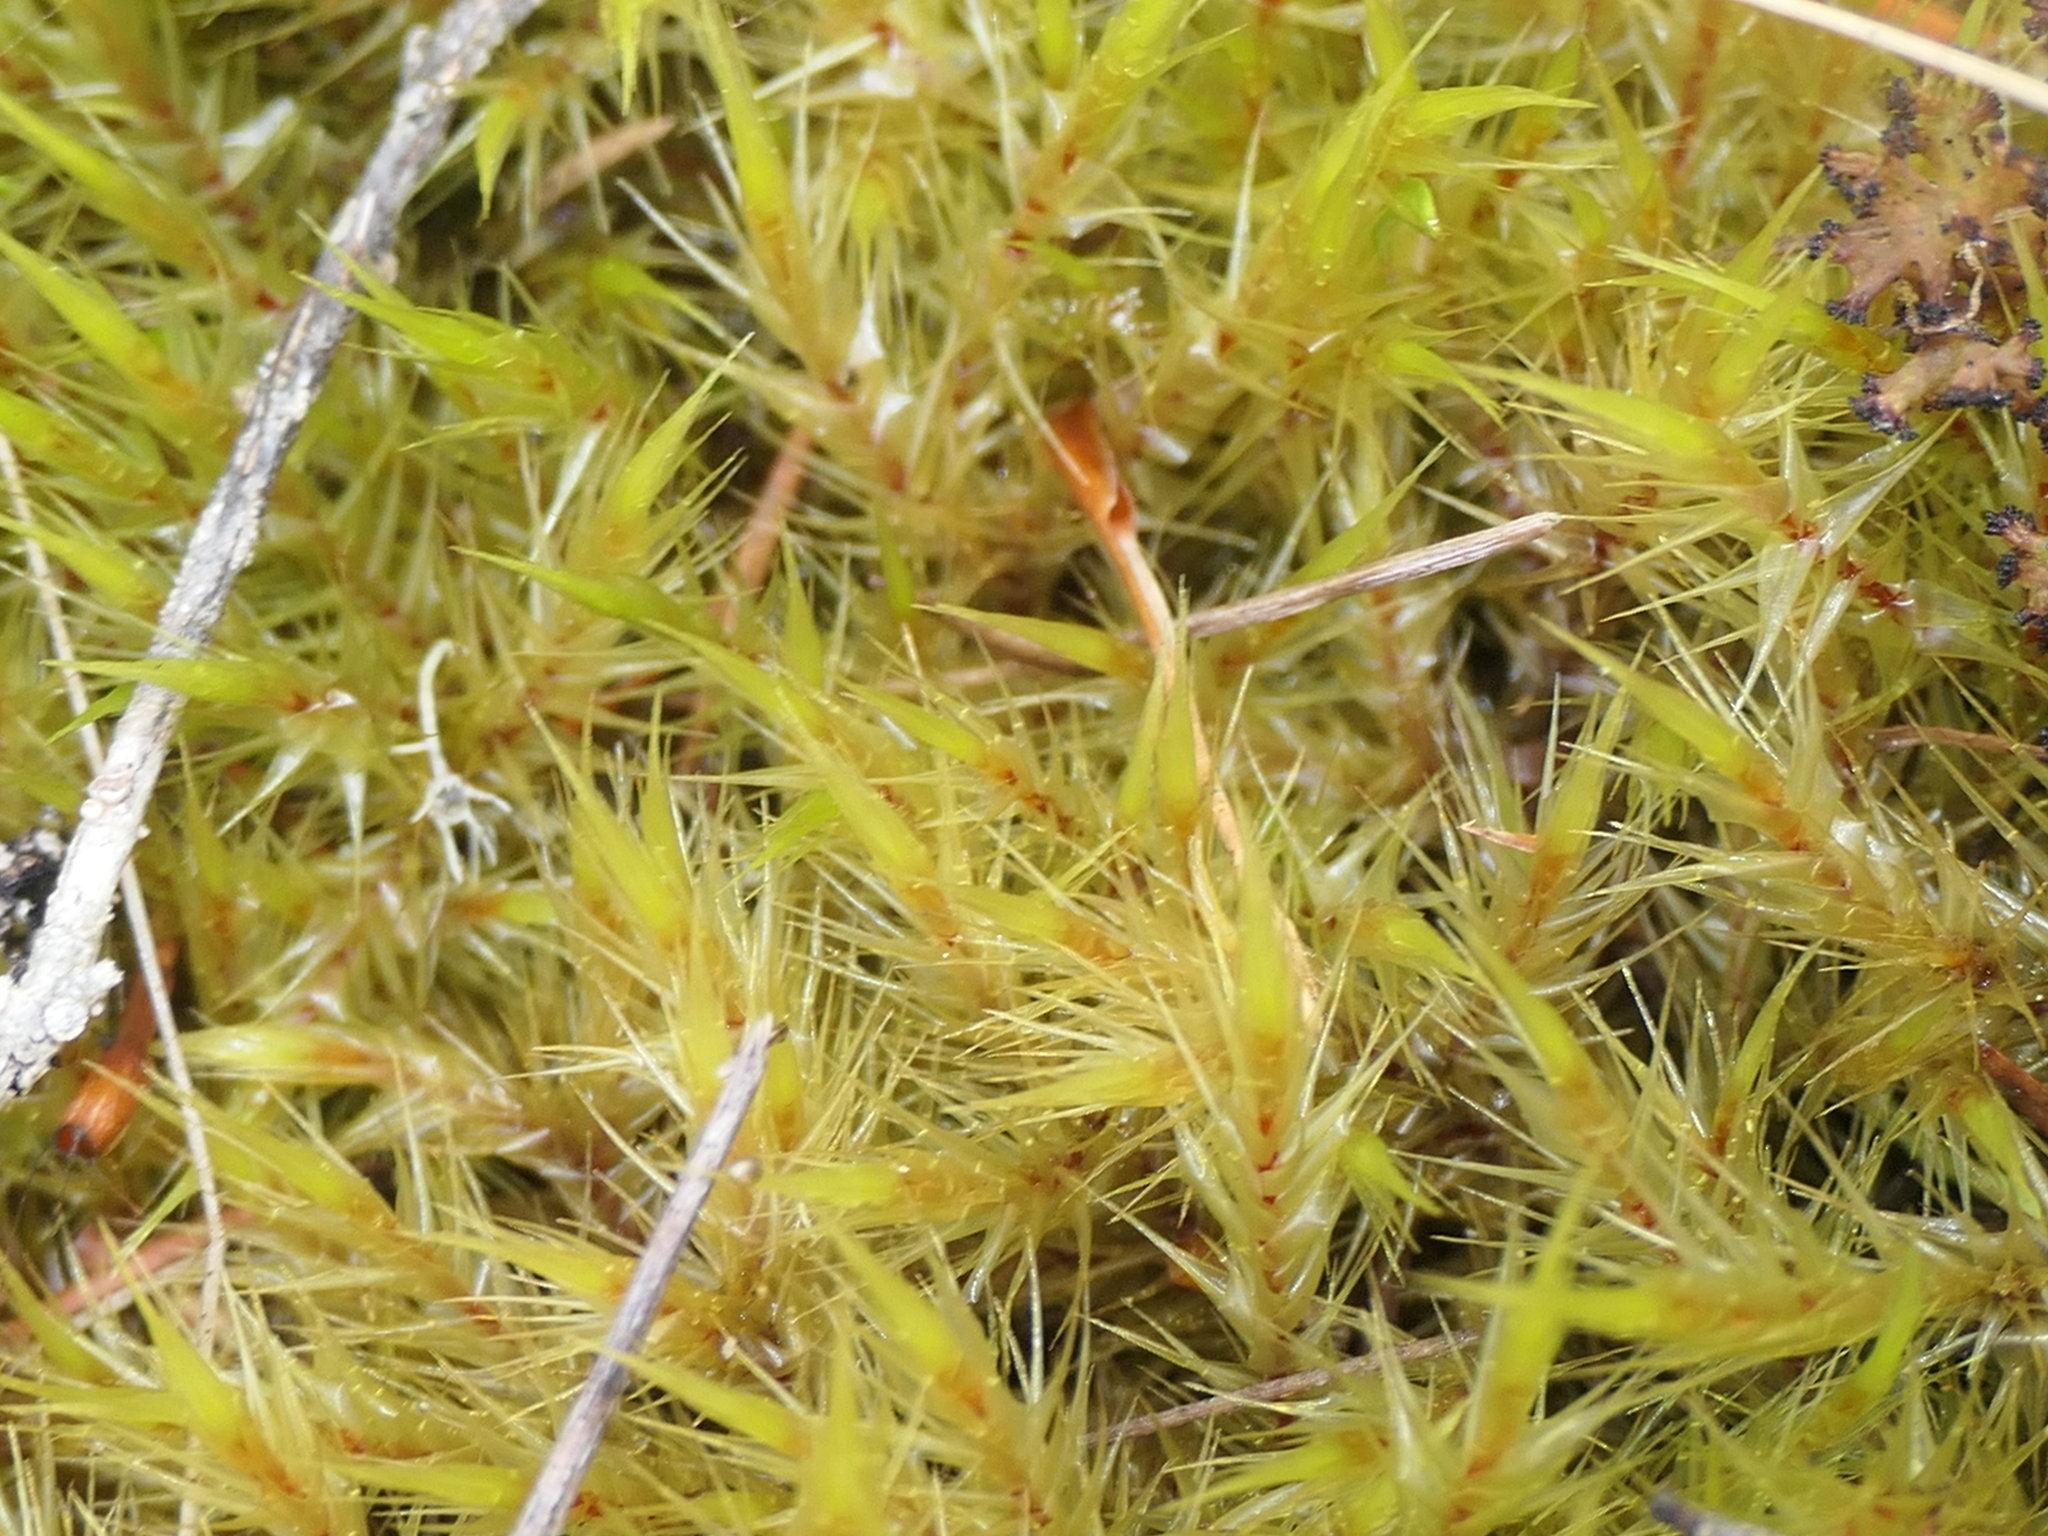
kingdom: Plantae
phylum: Bryophyta
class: Bryopsida
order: Dicranales
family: Dicranaceae
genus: Dicranoloma
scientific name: Dicranoloma billardieri
